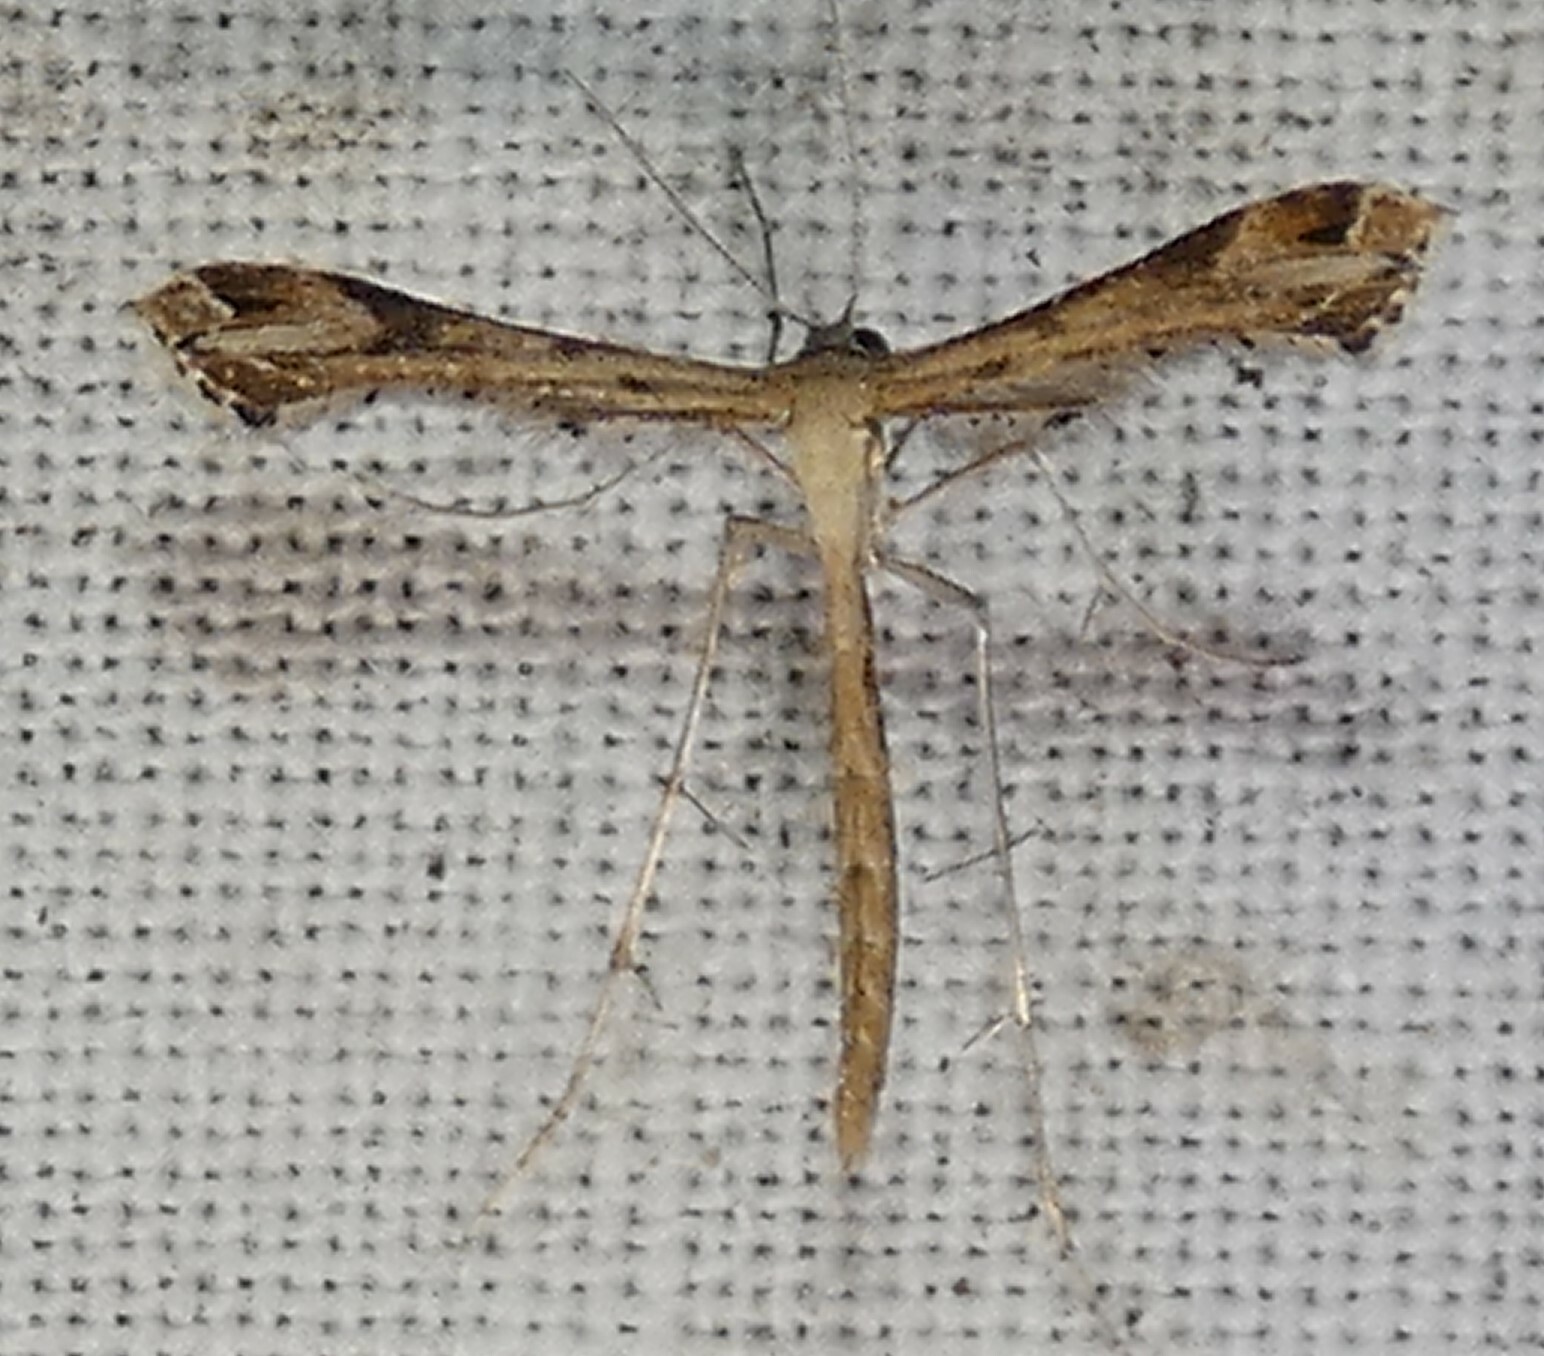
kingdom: Animalia
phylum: Arthropoda
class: Insecta
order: Lepidoptera
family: Pterophoridae
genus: Stenoptilodes
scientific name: Stenoptilodes
